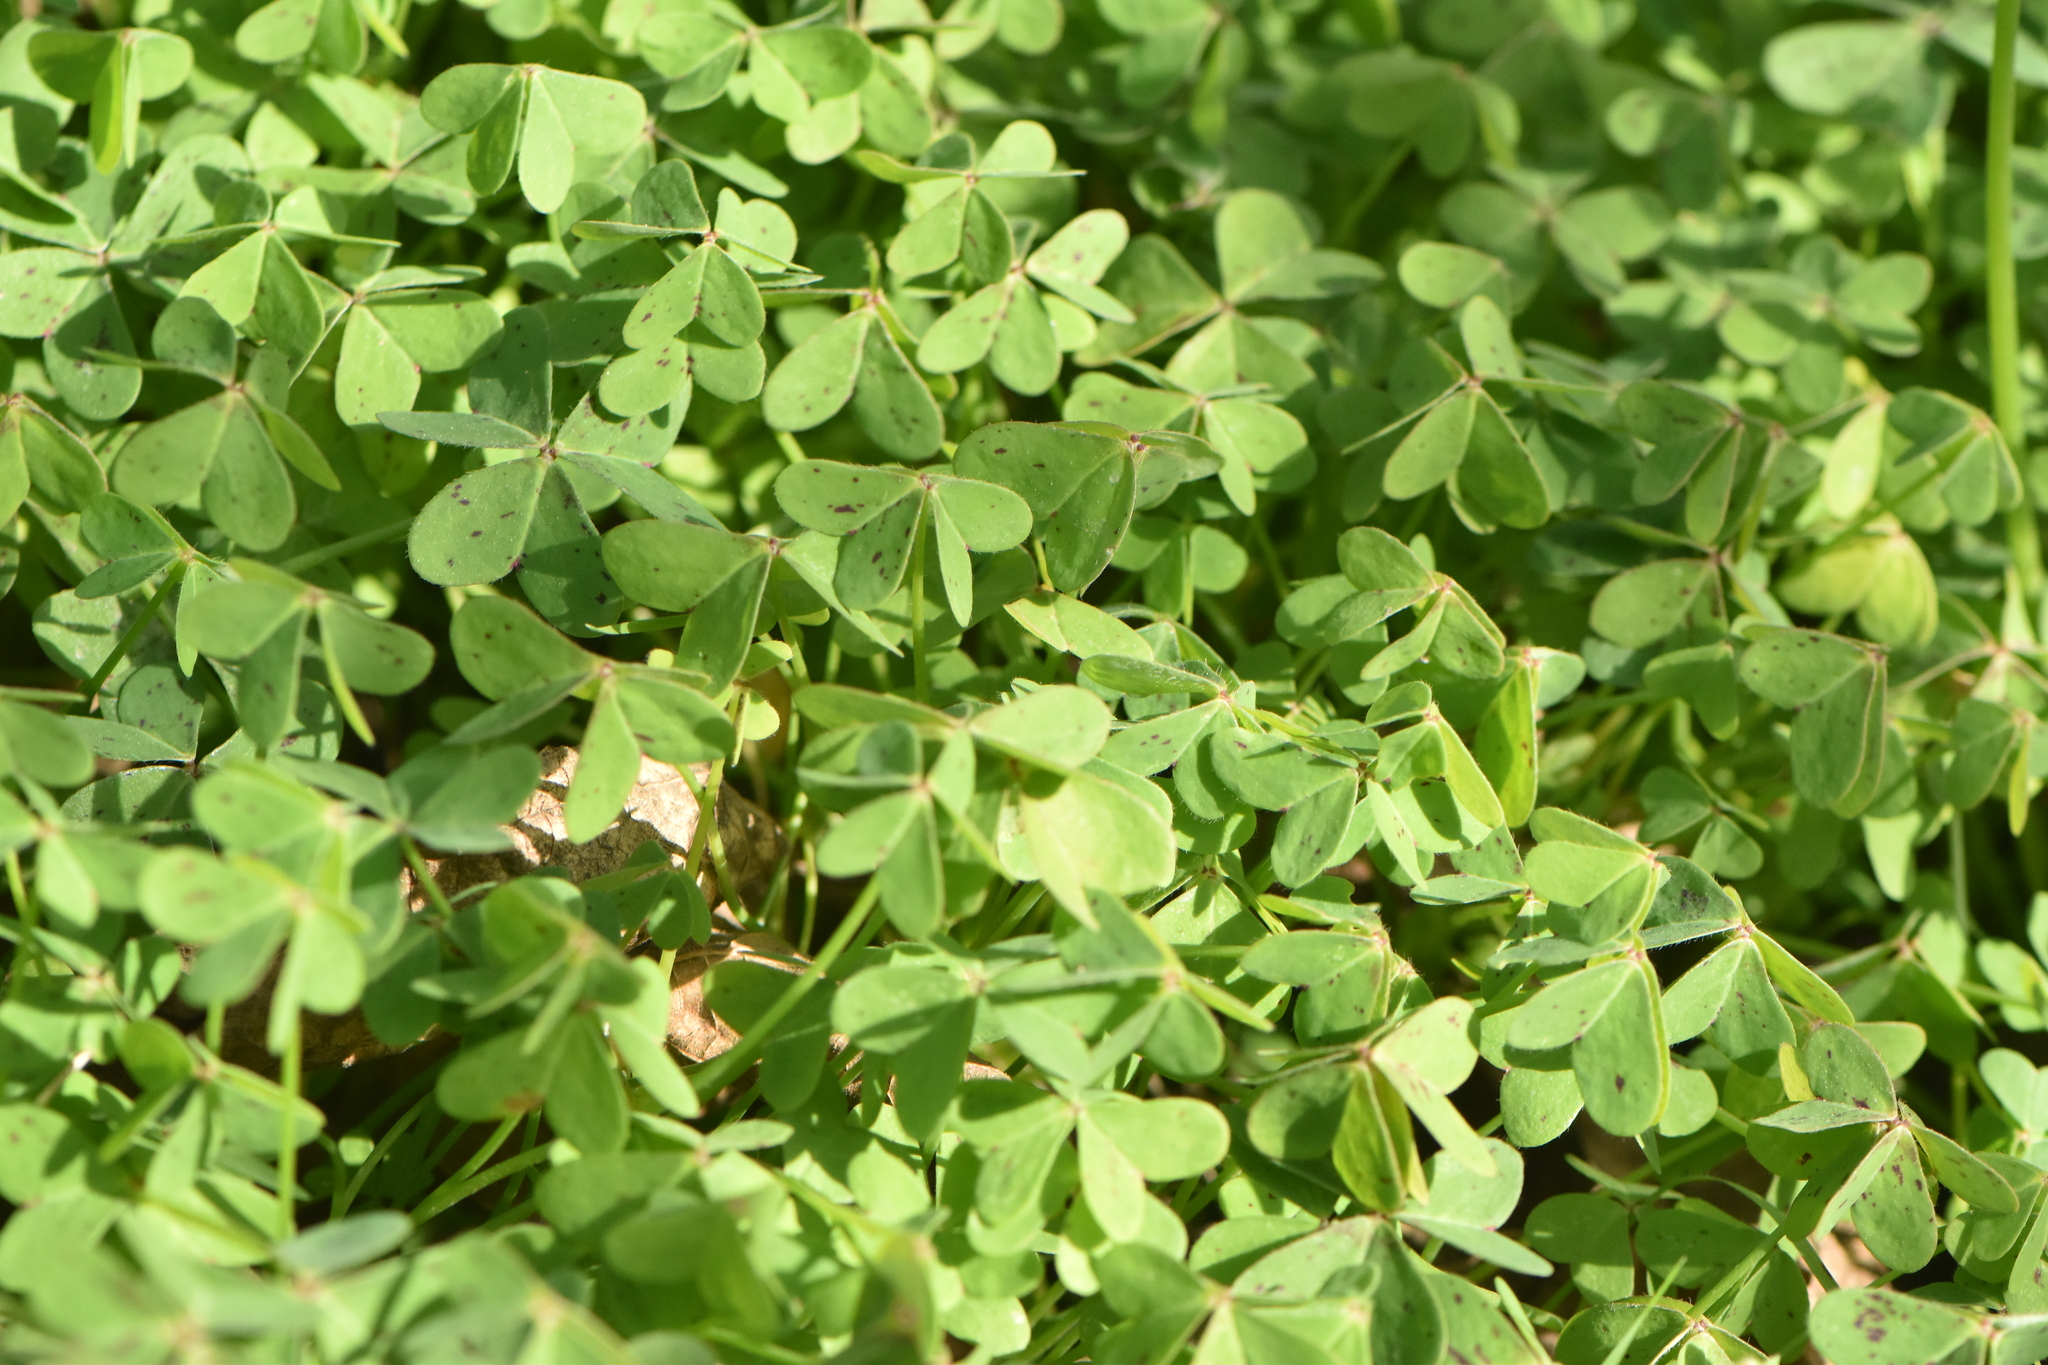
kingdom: Plantae
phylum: Tracheophyta
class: Magnoliopsida
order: Oxalidales
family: Oxalidaceae
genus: Oxalis
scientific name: Oxalis pes-caprae
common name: Bermuda-buttercup
